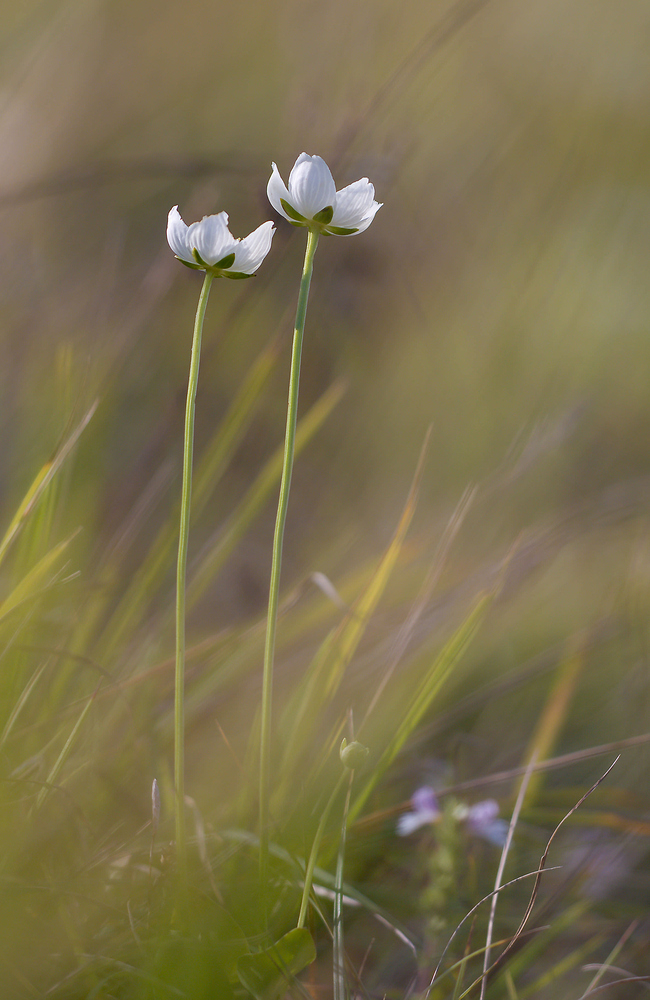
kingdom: Plantae
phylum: Tracheophyta
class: Magnoliopsida
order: Celastrales
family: Parnassiaceae
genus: Parnassia
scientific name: Parnassia palustris
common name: Grass-of-parnassus
